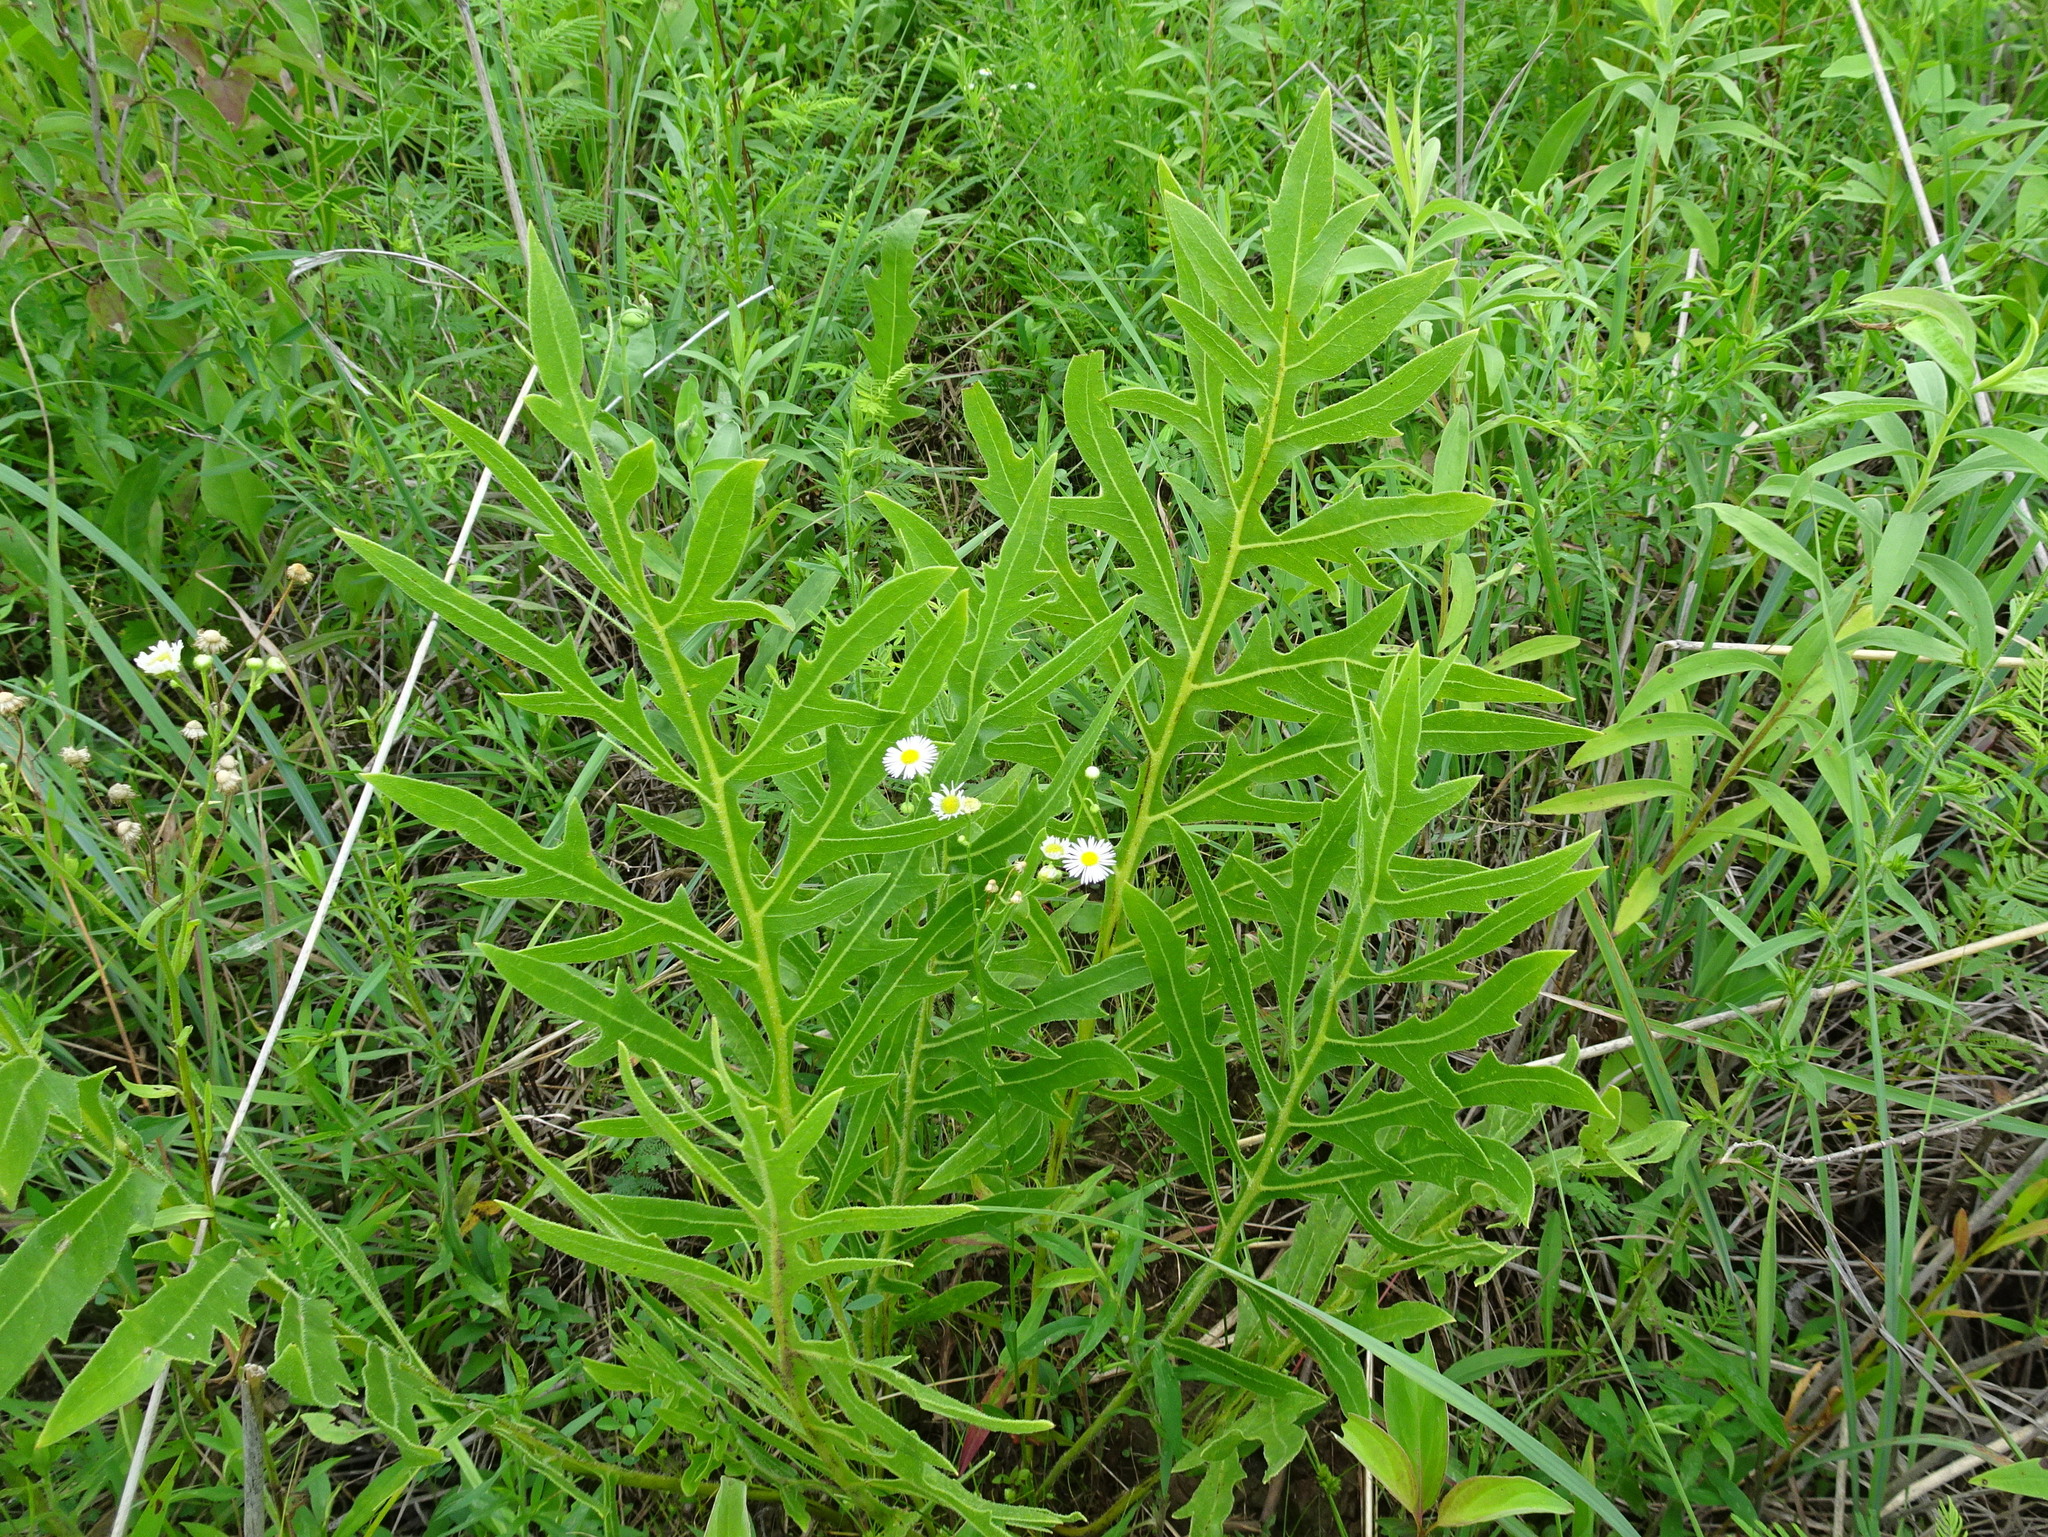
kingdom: Plantae
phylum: Tracheophyta
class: Magnoliopsida
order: Asterales
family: Asteraceae
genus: Silphium
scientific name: Silphium laciniatum
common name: Polarplant
